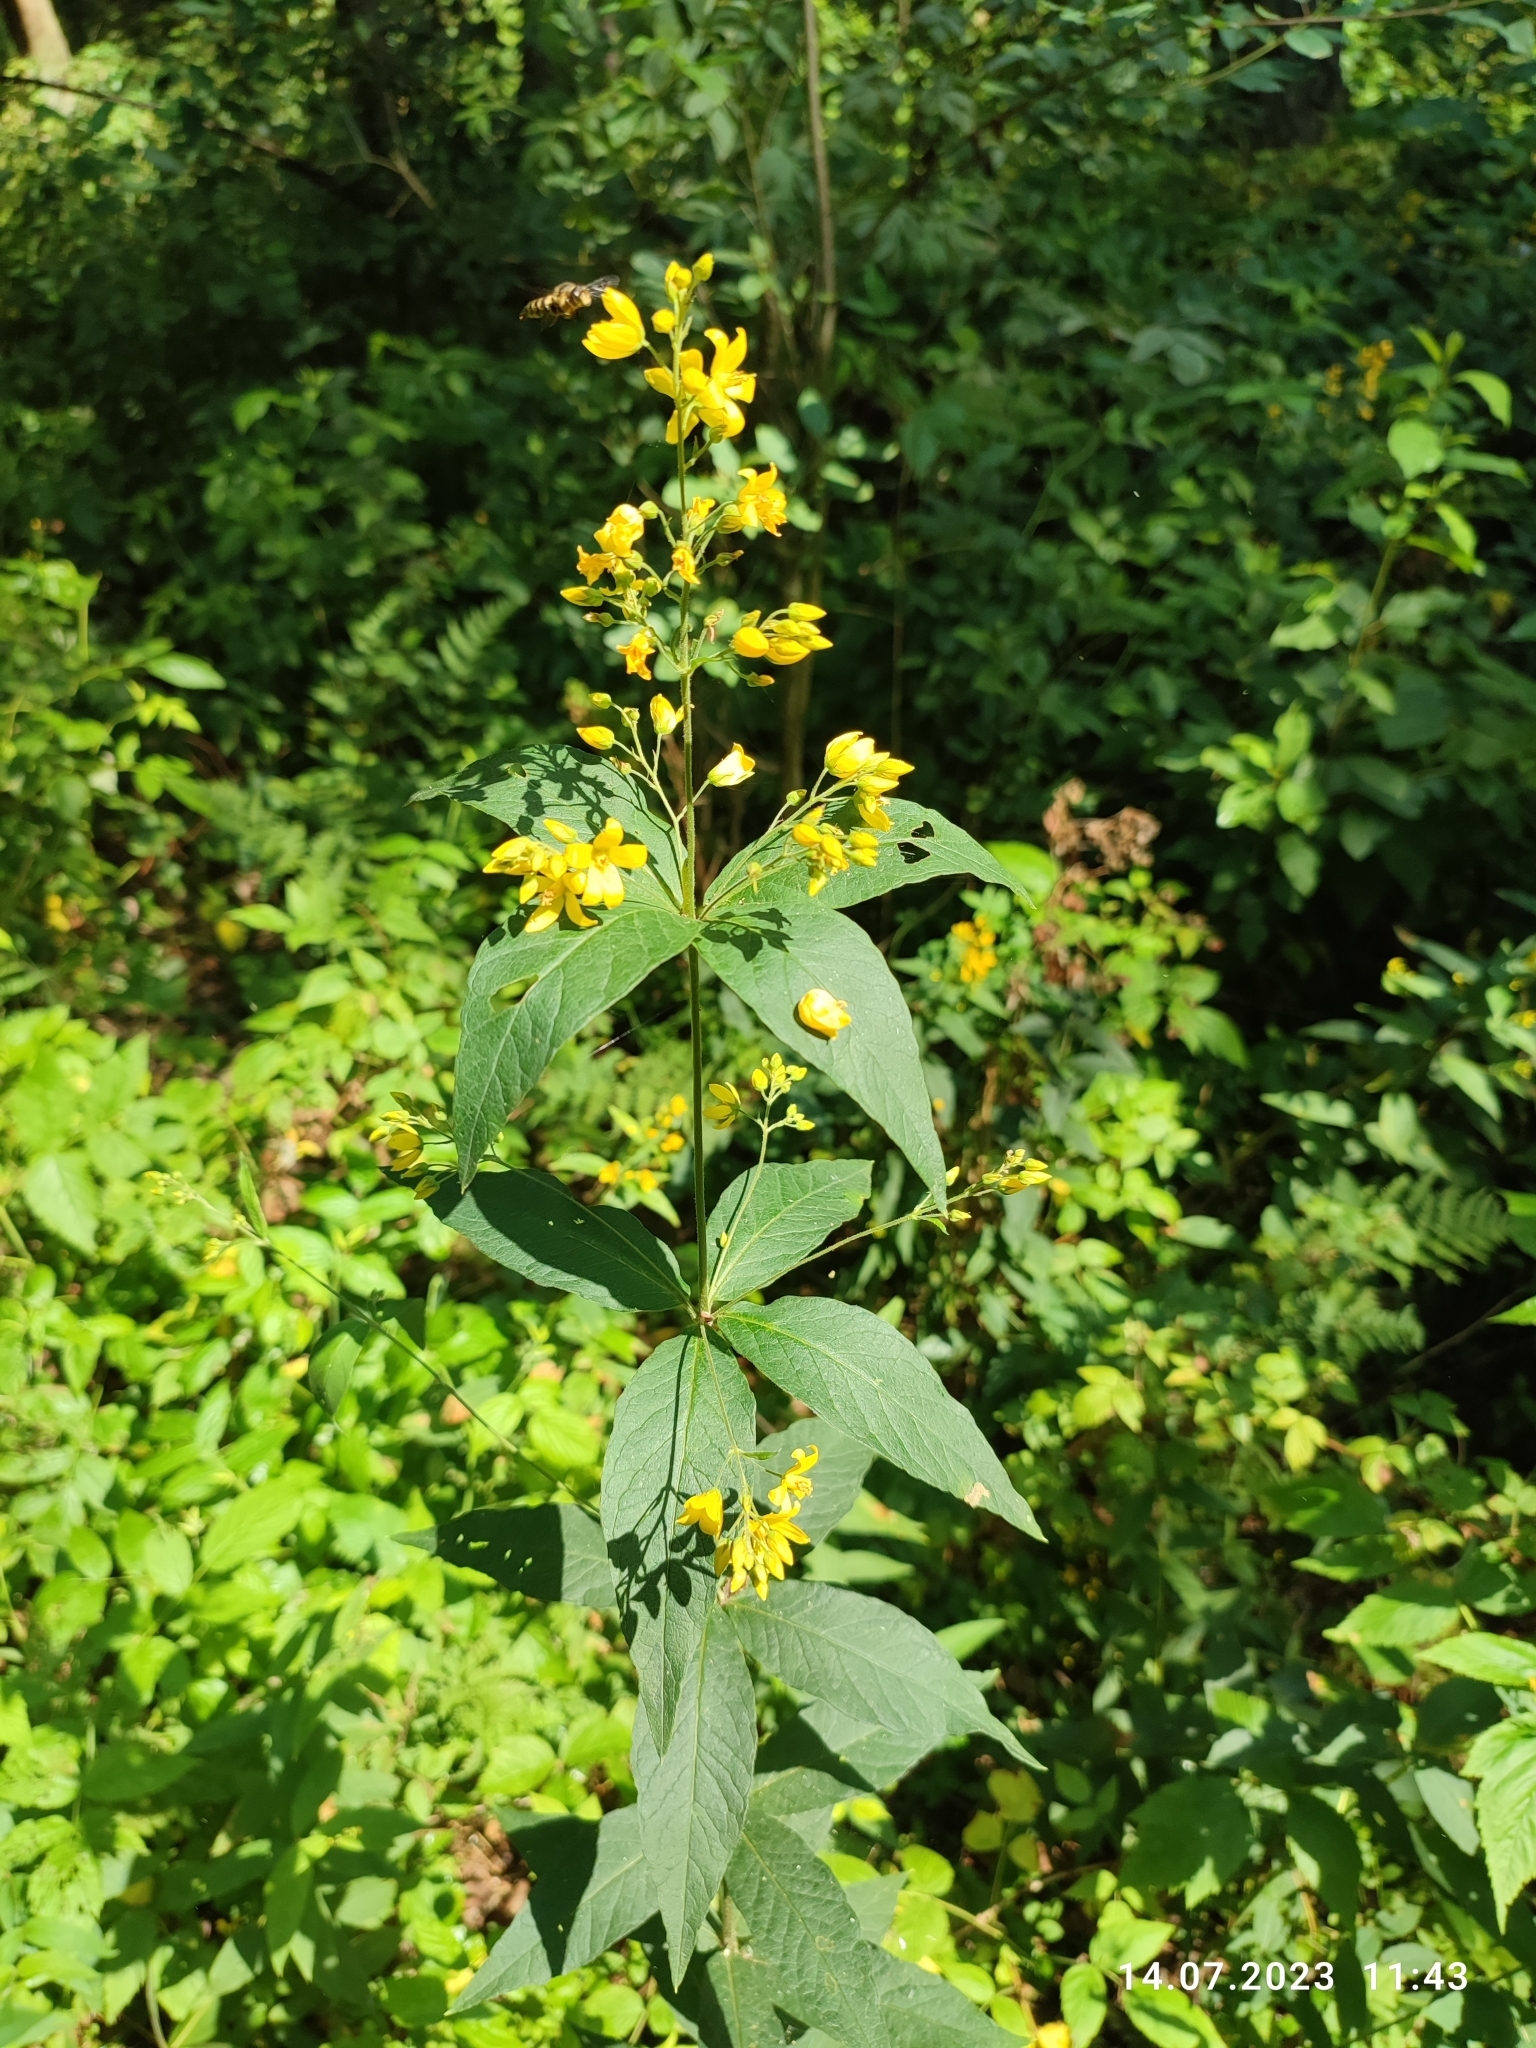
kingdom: Plantae
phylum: Tracheophyta
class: Magnoliopsida
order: Ericales
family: Primulaceae
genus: Lysimachia
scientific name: Lysimachia vulgaris
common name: Yellow loosestrife
